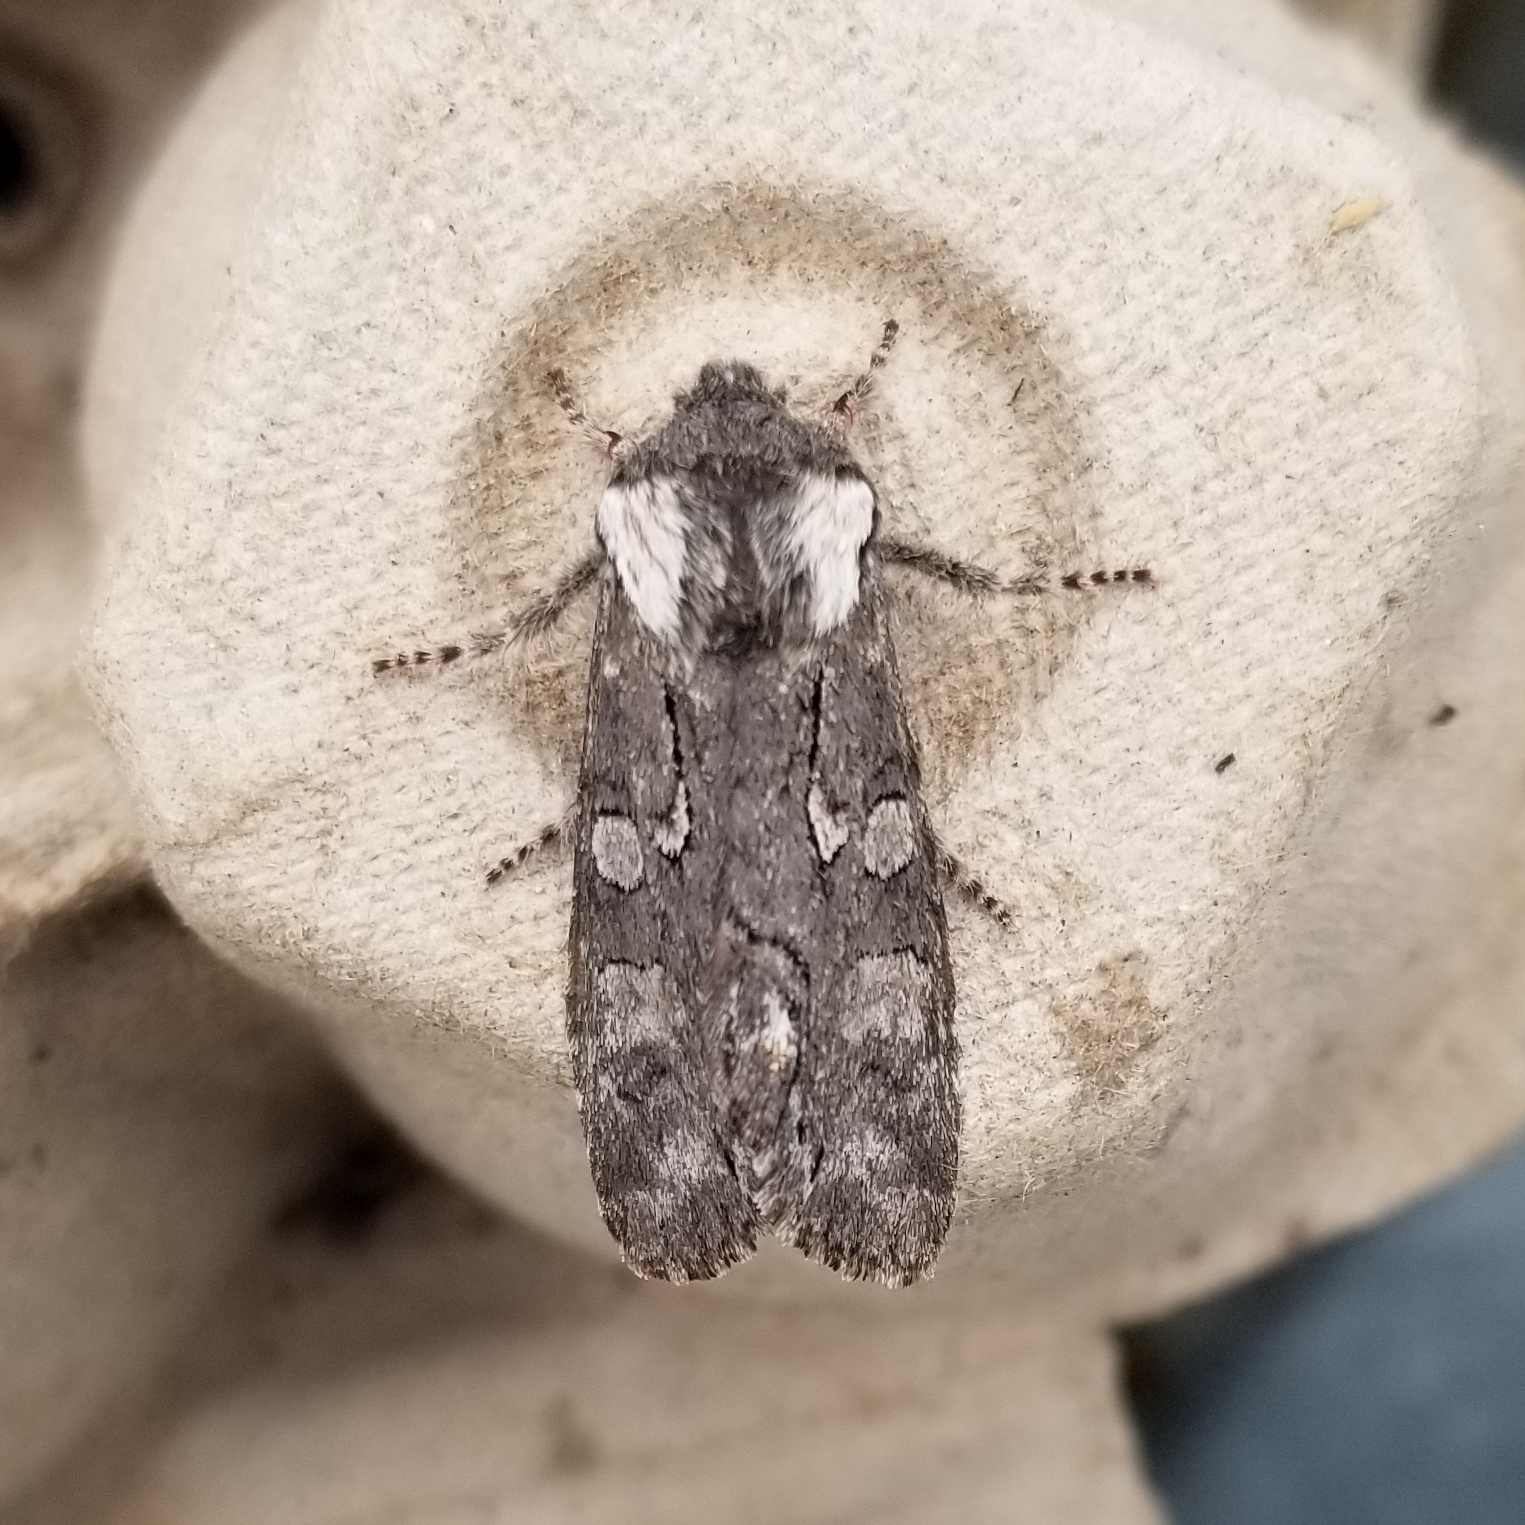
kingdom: Animalia
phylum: Arthropoda
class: Insecta
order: Lepidoptera
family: Noctuidae
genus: Psaphida
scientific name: Psaphida electilis
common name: Chosen sallow
